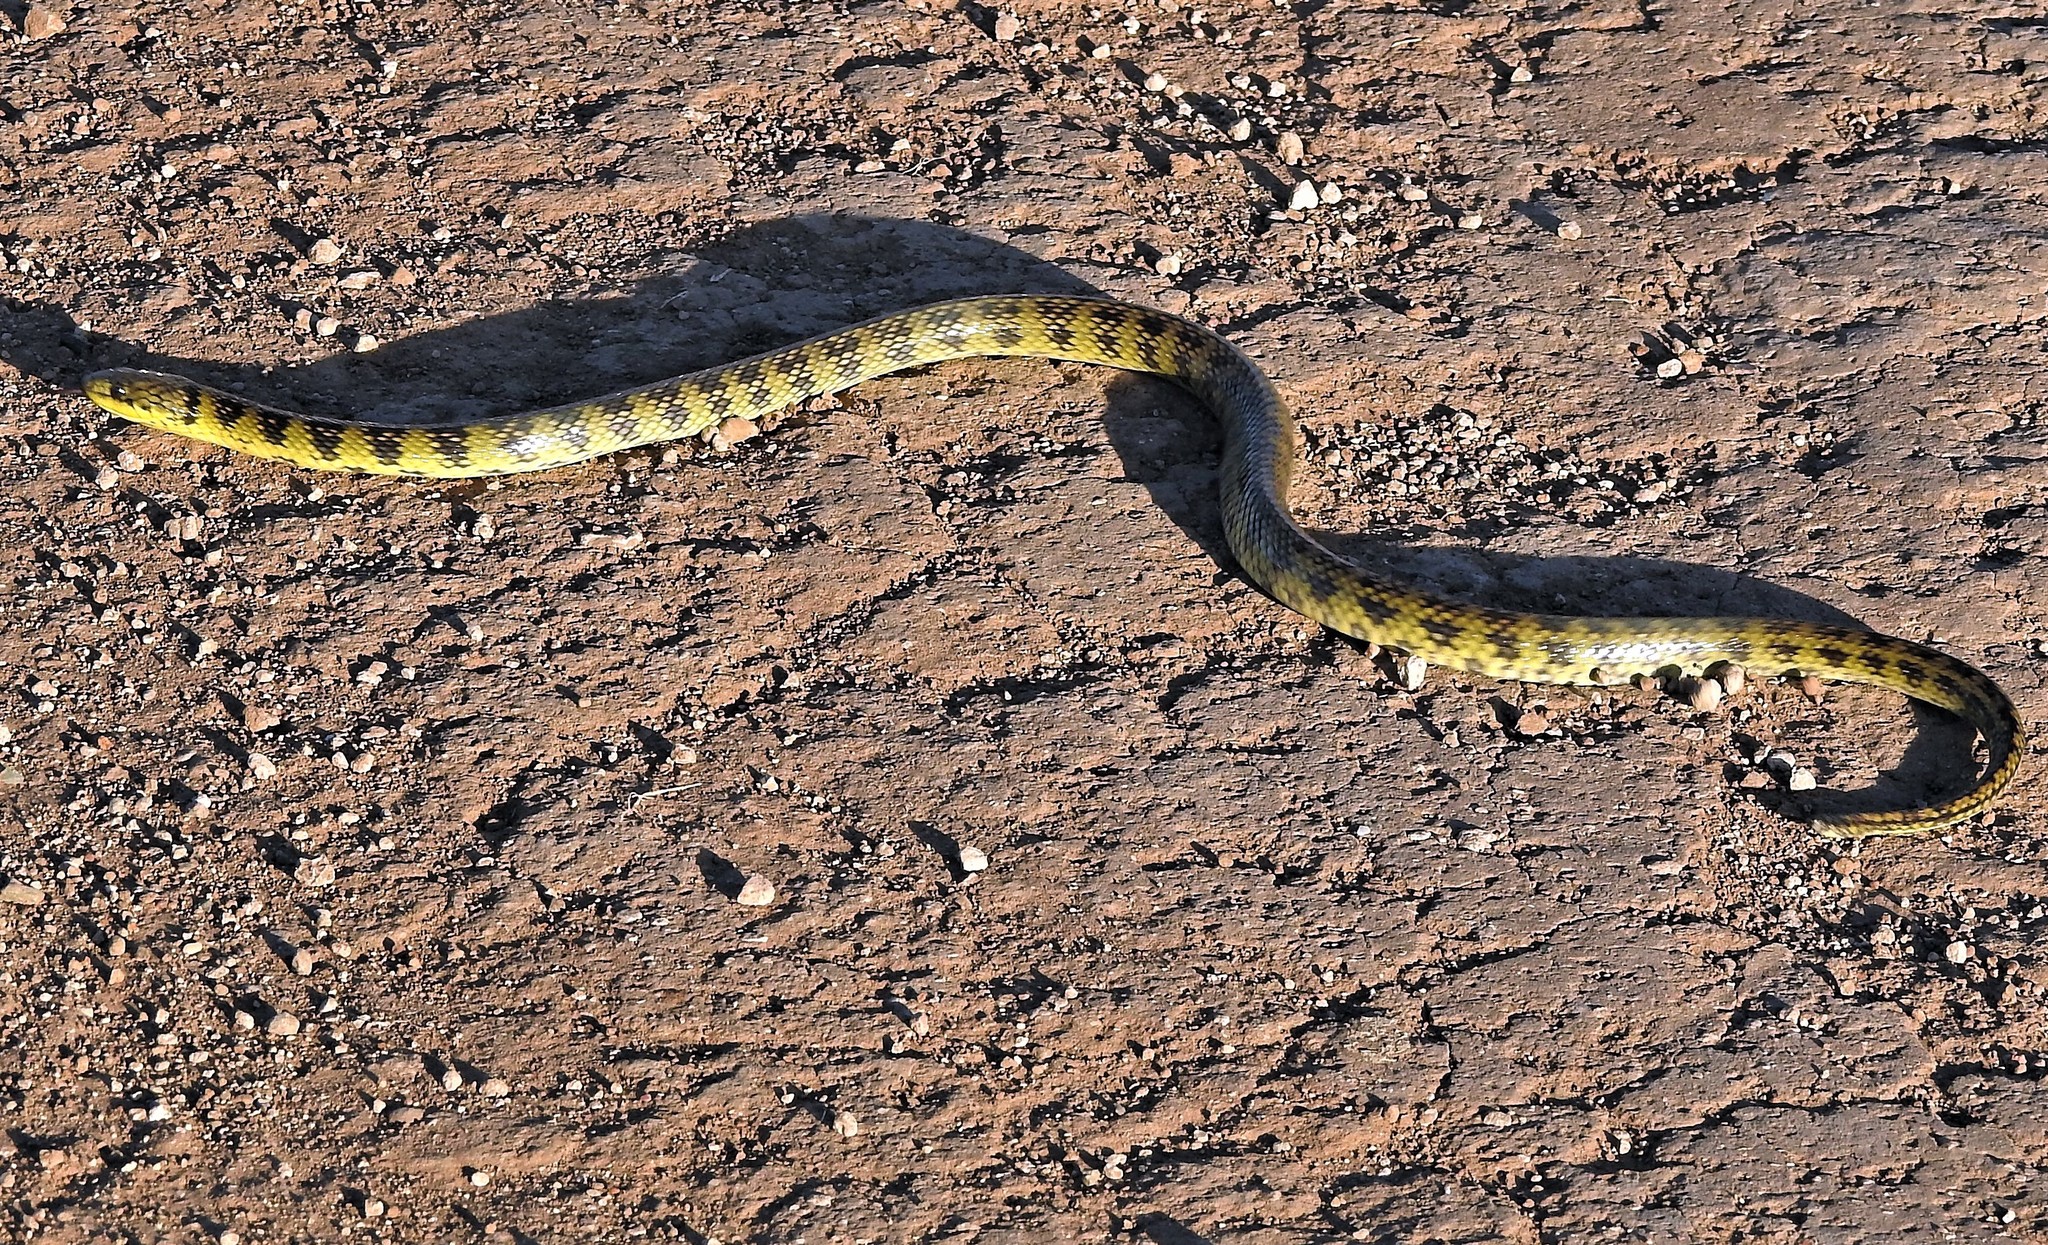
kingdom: Animalia
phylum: Chordata
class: Squamata
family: Colubridae
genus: Erythrolamprus
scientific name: Erythrolamprus poecilogyrus
